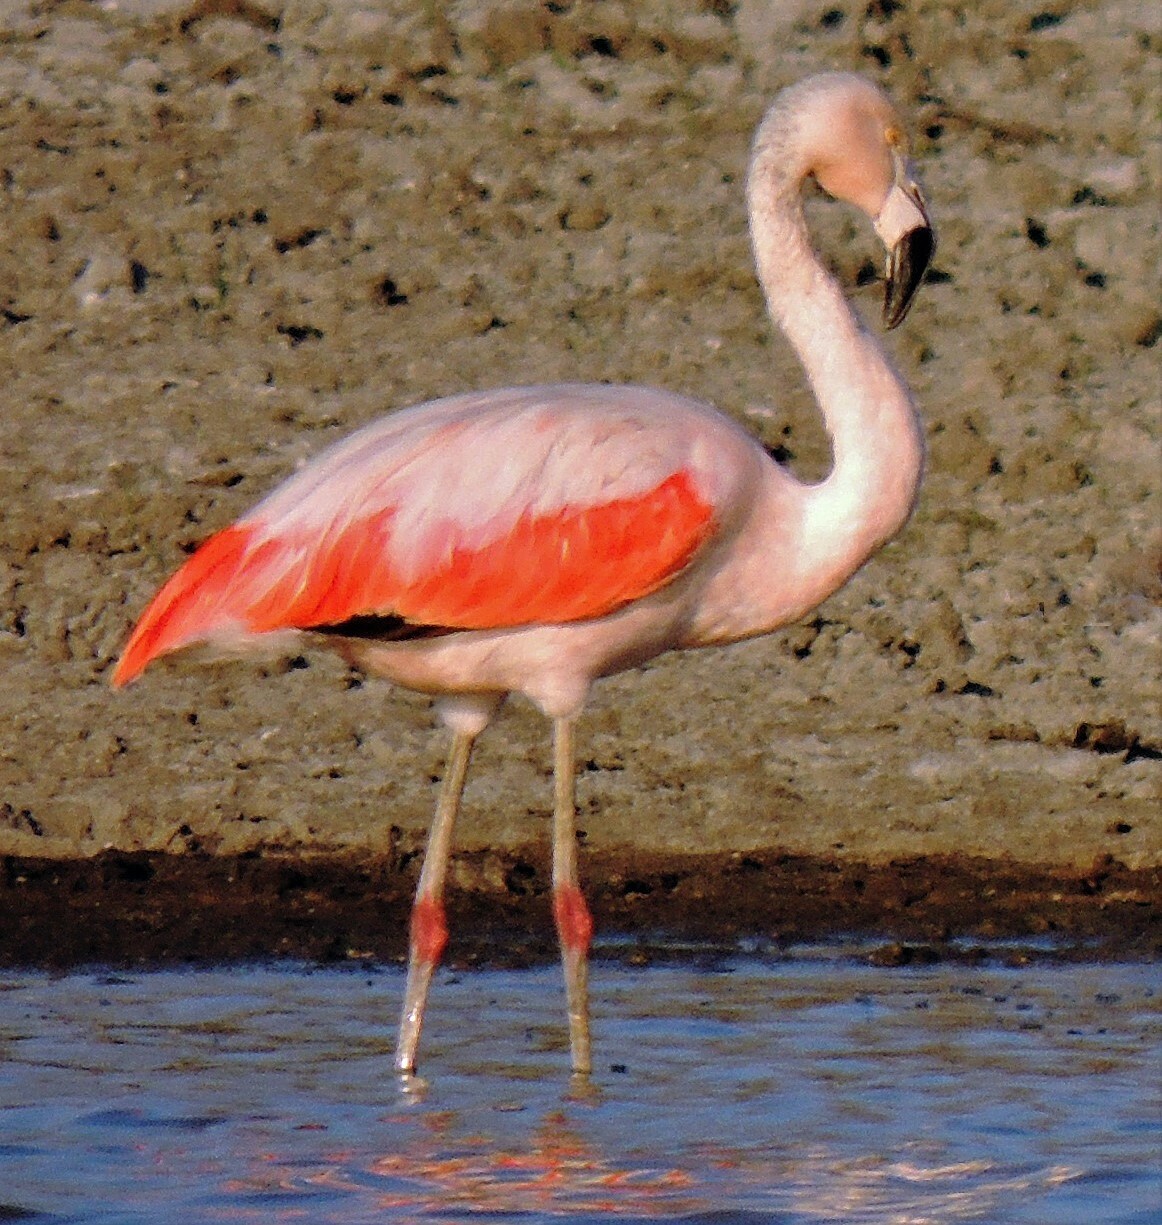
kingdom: Animalia
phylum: Chordata
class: Aves
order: Phoenicopteriformes
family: Phoenicopteridae
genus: Phoenicopterus
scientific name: Phoenicopterus chilensis
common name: Chilean flamingo
